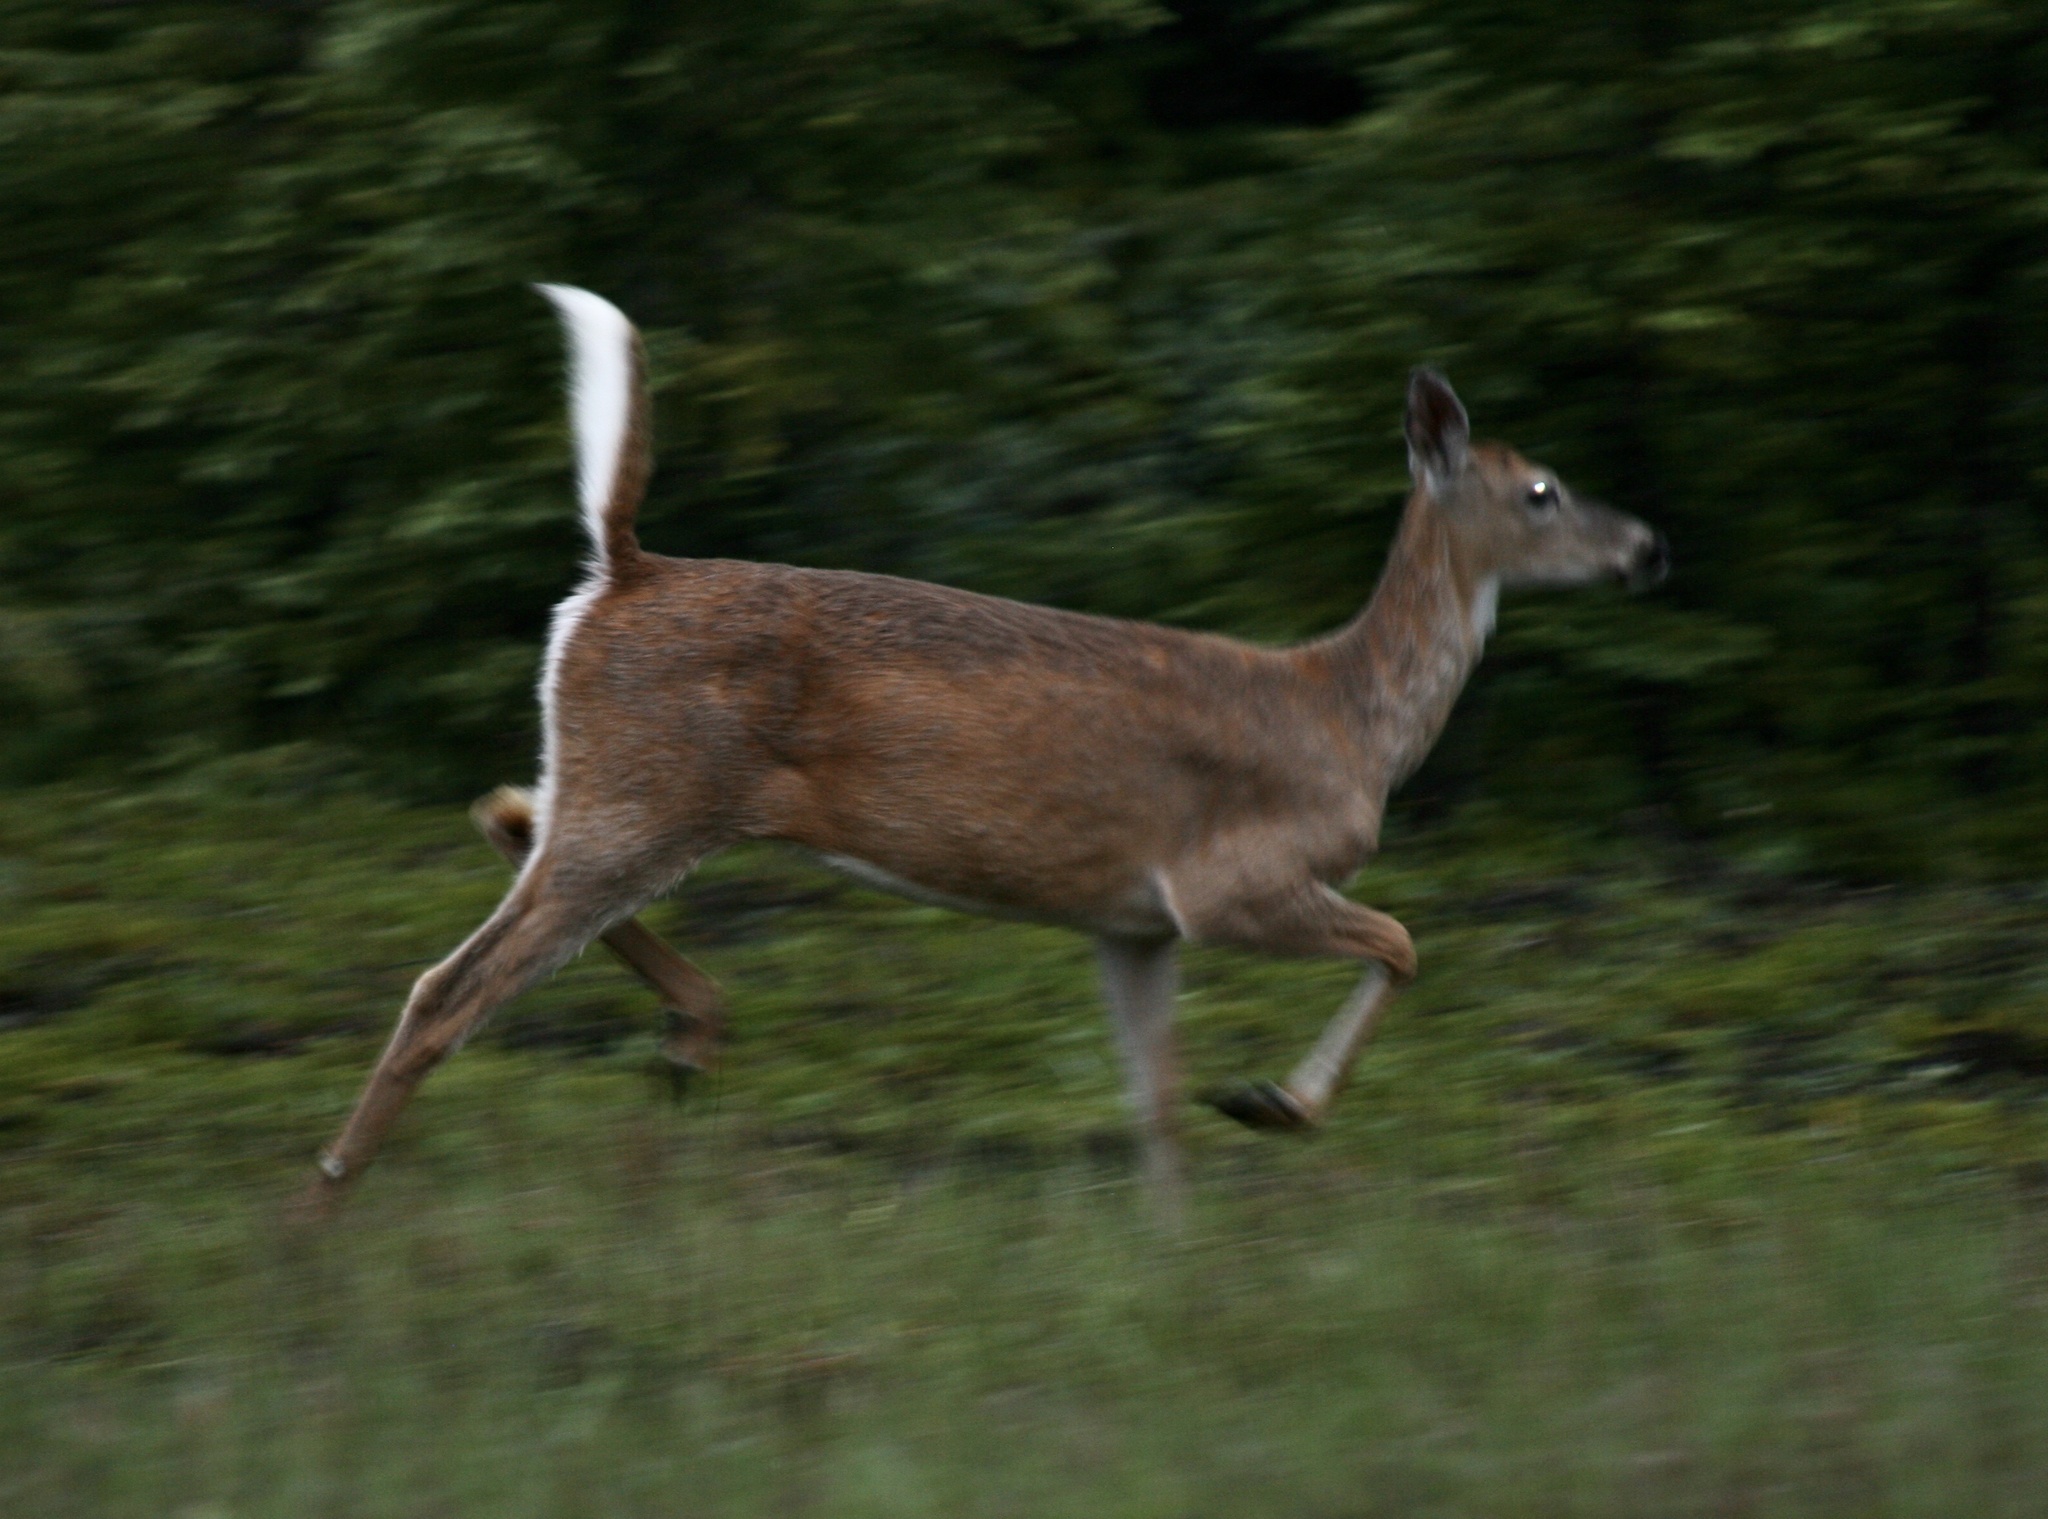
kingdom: Animalia
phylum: Chordata
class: Mammalia
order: Artiodactyla
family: Cervidae
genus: Odocoileus
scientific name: Odocoileus virginianus
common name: White-tailed deer
